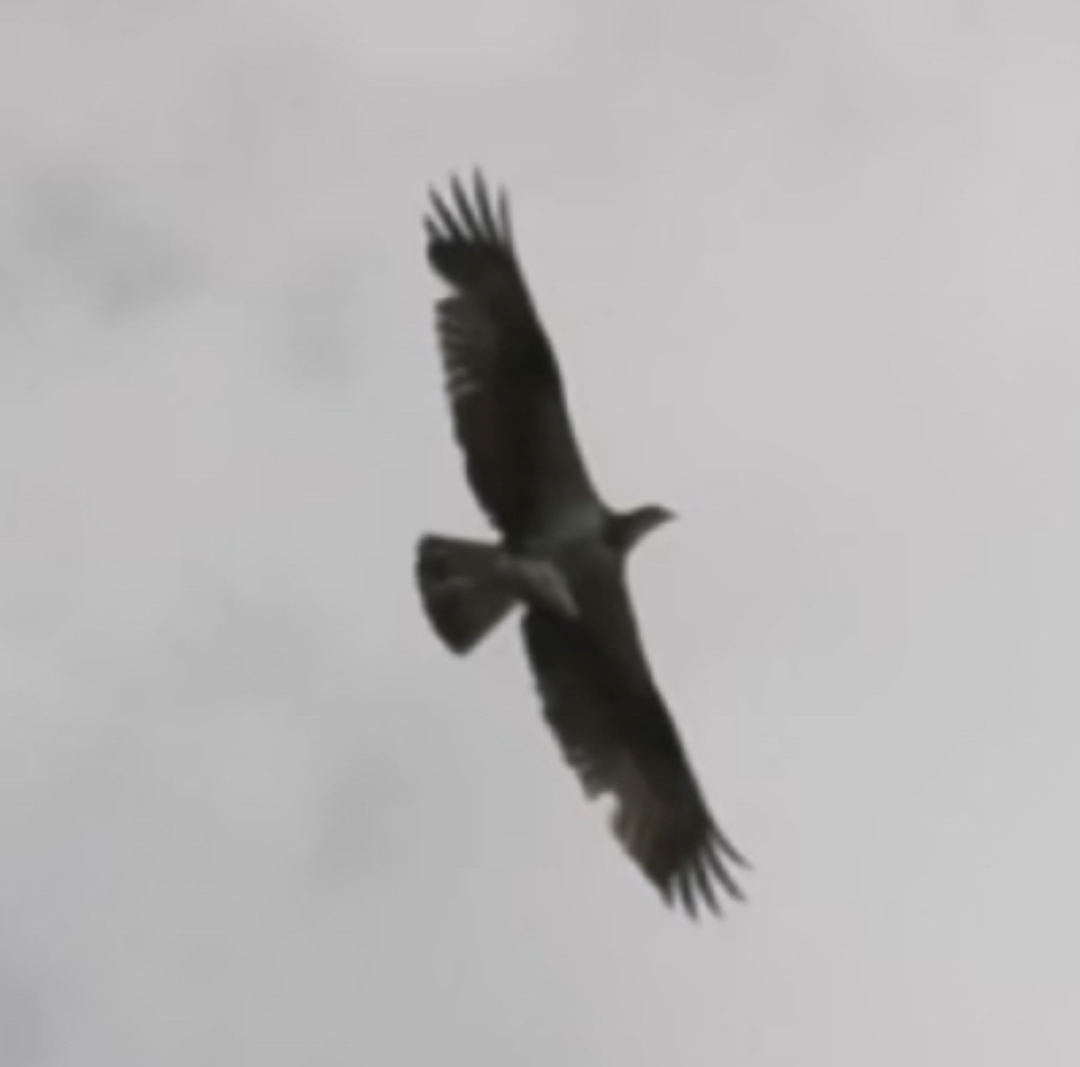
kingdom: Animalia
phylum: Chordata
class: Aves
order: Accipitriformes
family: Pandionidae
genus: Pandion
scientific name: Pandion haliaetus
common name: Osprey
